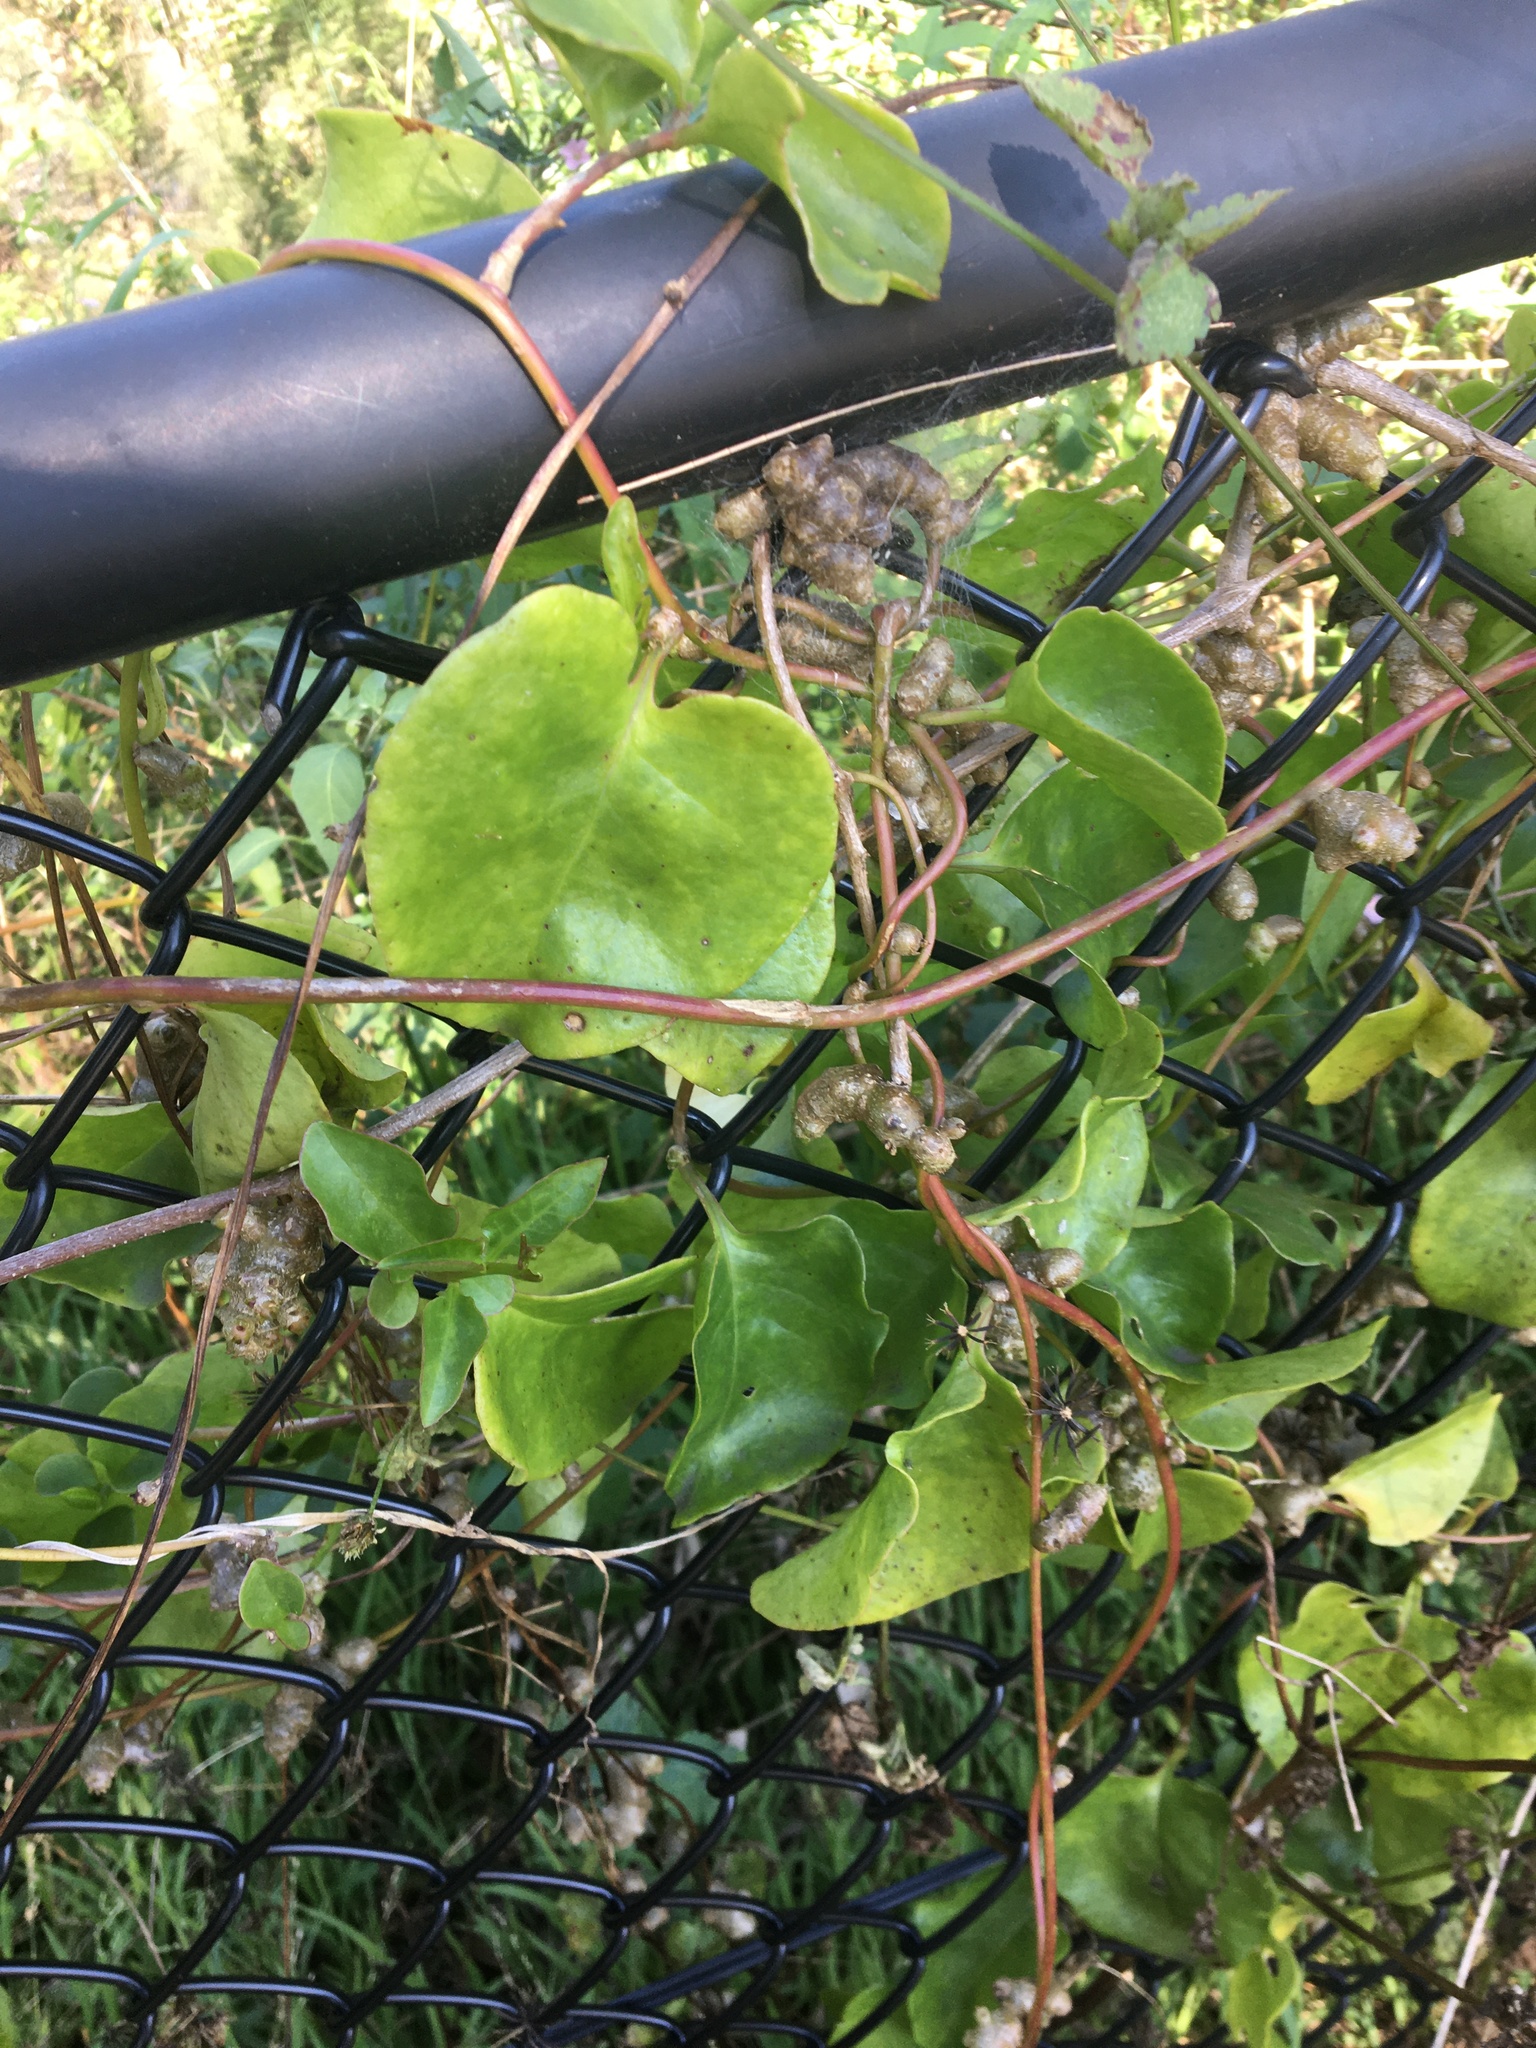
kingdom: Plantae
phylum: Tracheophyta
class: Magnoliopsida
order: Caryophyllales
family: Basellaceae
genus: Anredera
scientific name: Anredera cordifolia
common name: Heartleaf madeiravine
